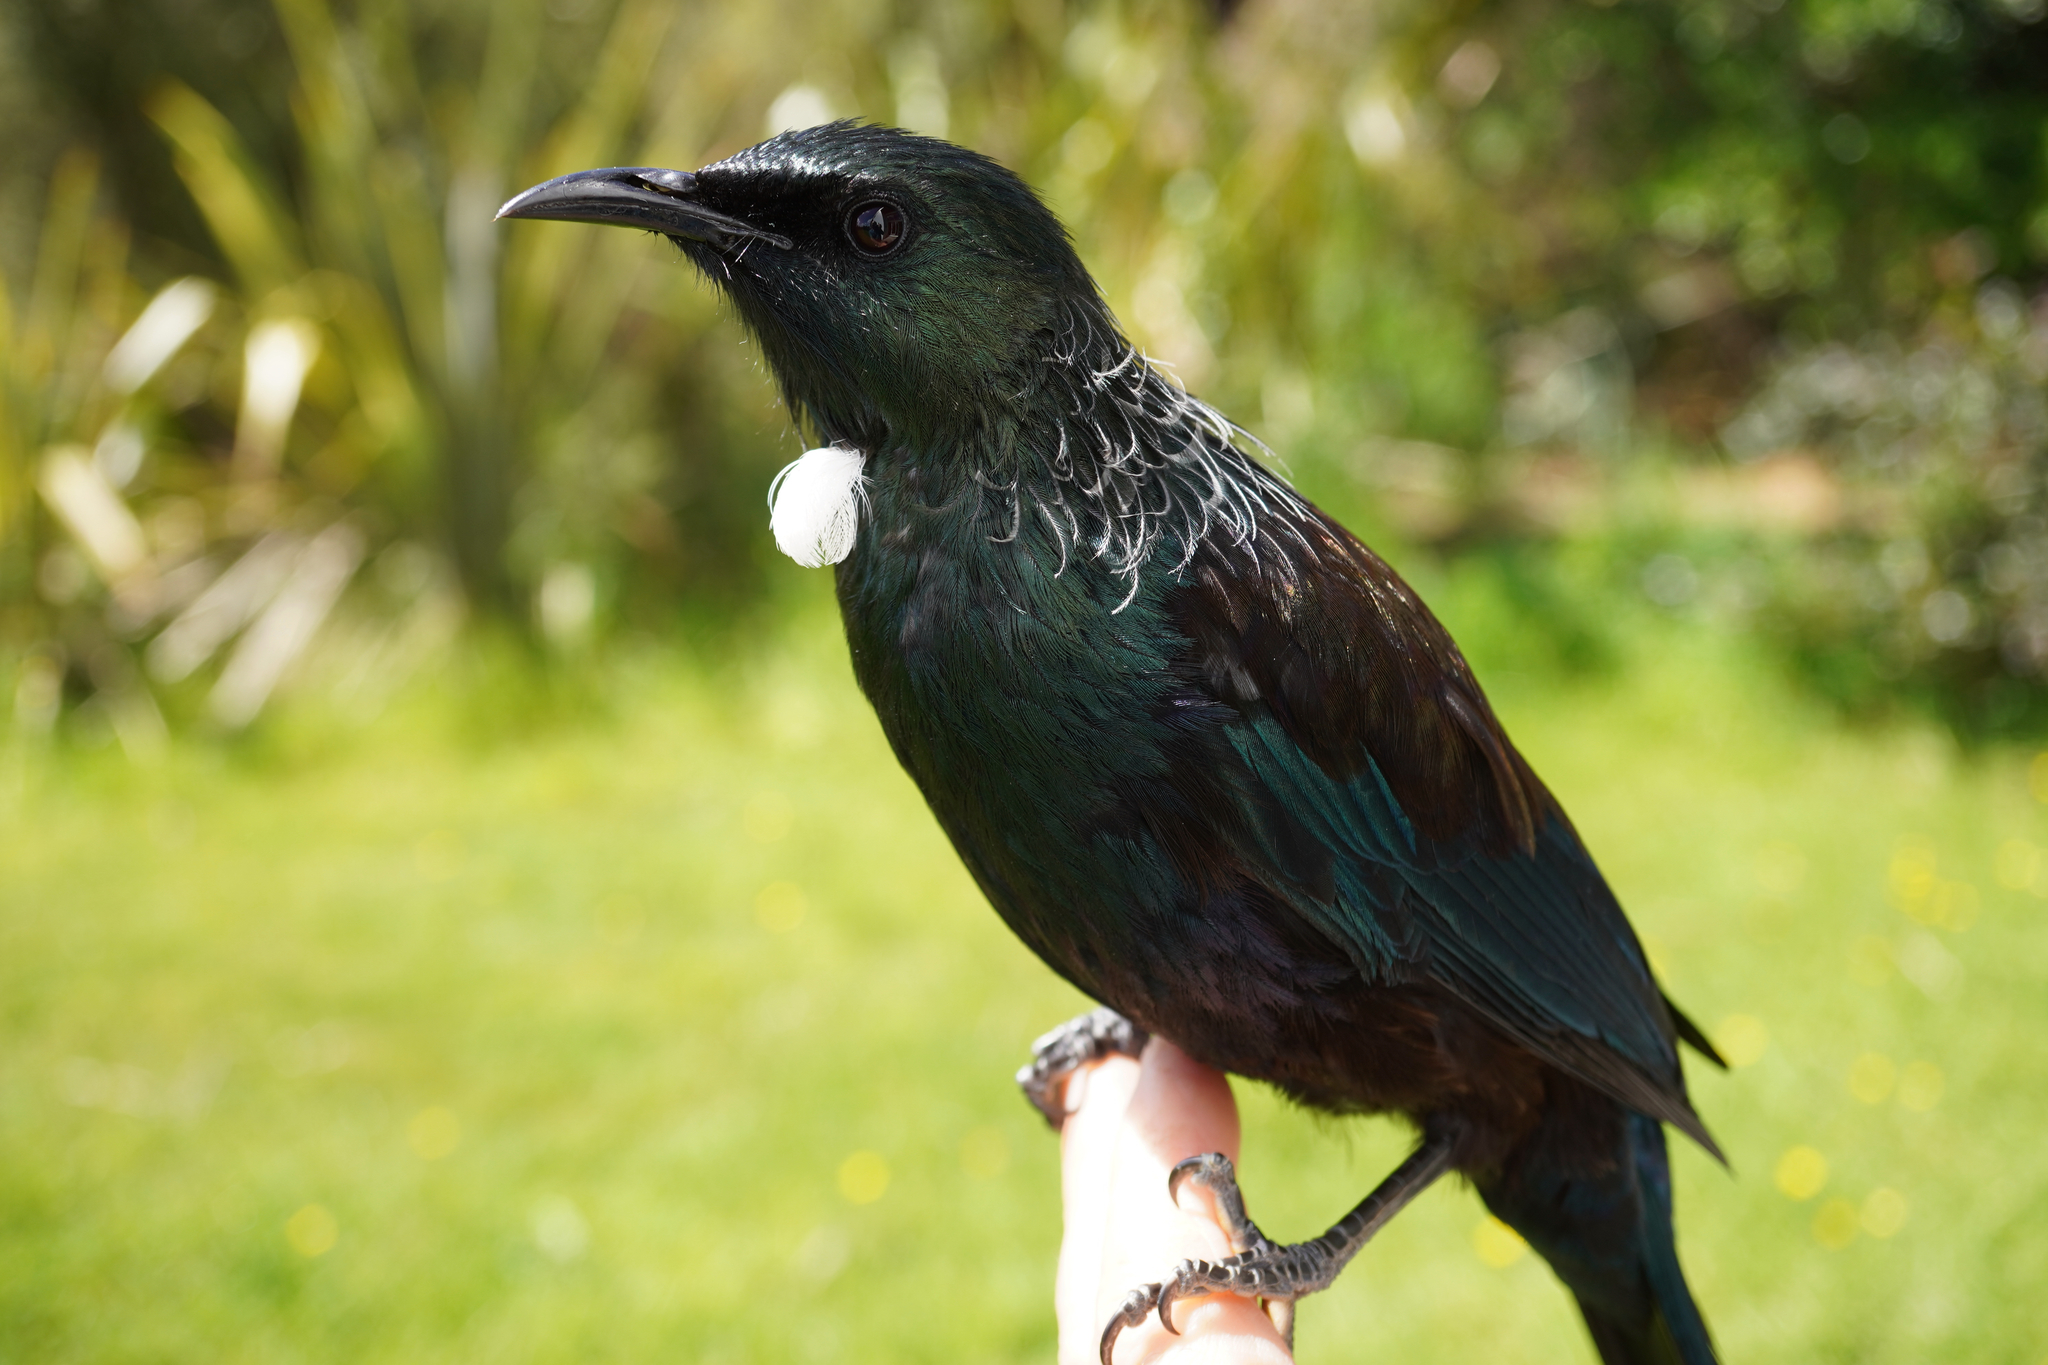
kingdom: Animalia
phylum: Chordata
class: Aves
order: Passeriformes
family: Meliphagidae
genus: Prosthemadera
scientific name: Prosthemadera novaeseelandiae
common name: Tui
